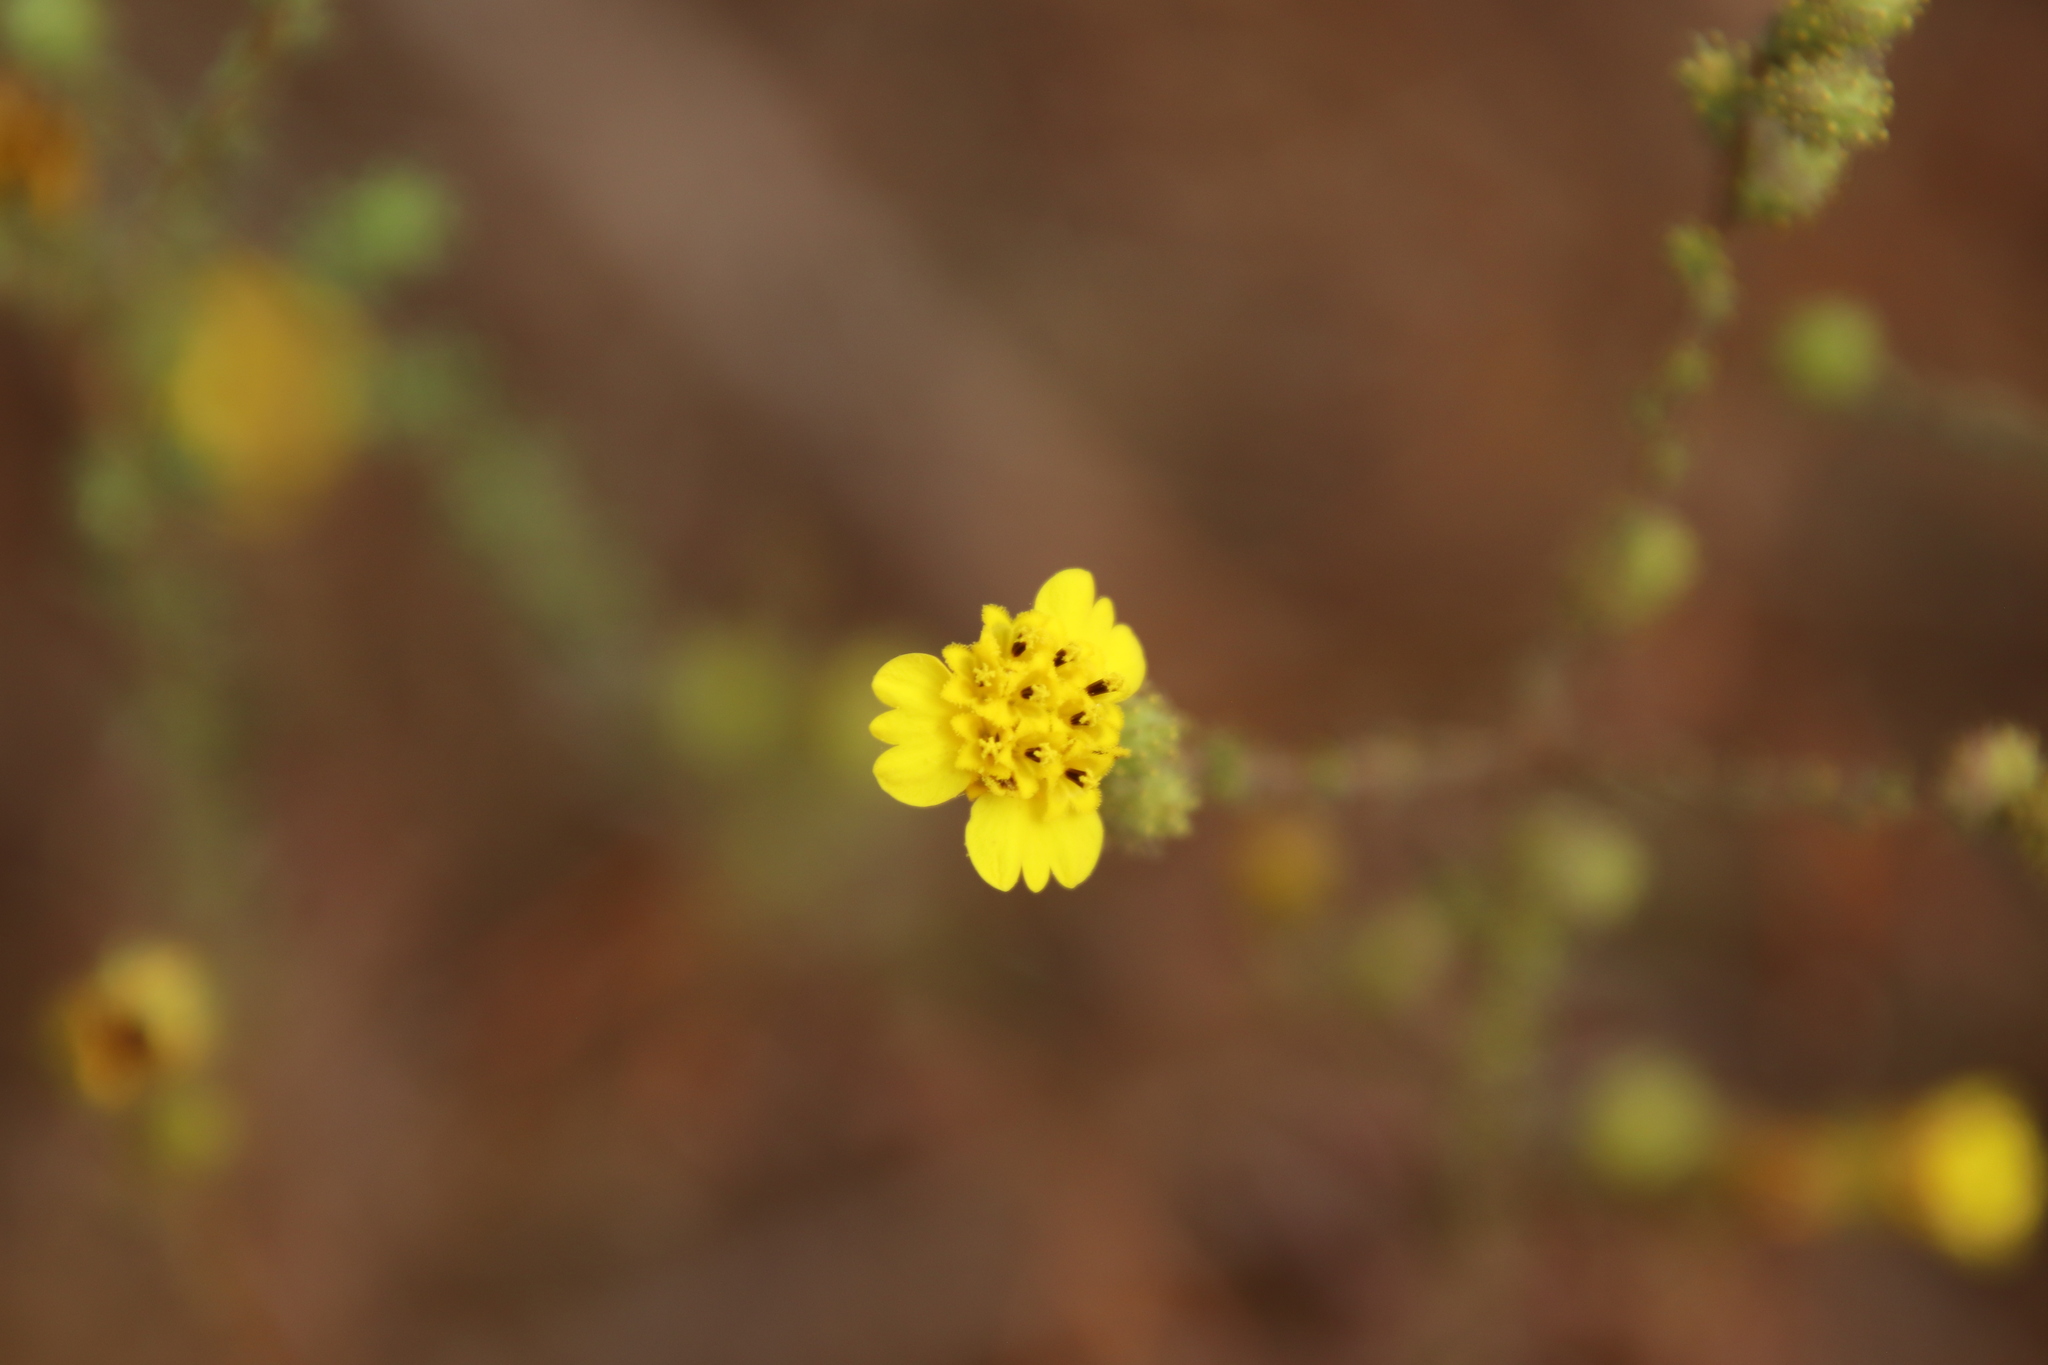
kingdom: Plantae
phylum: Tracheophyta
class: Magnoliopsida
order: Asterales
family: Asteraceae
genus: Holocarpha
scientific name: Holocarpha virgata
